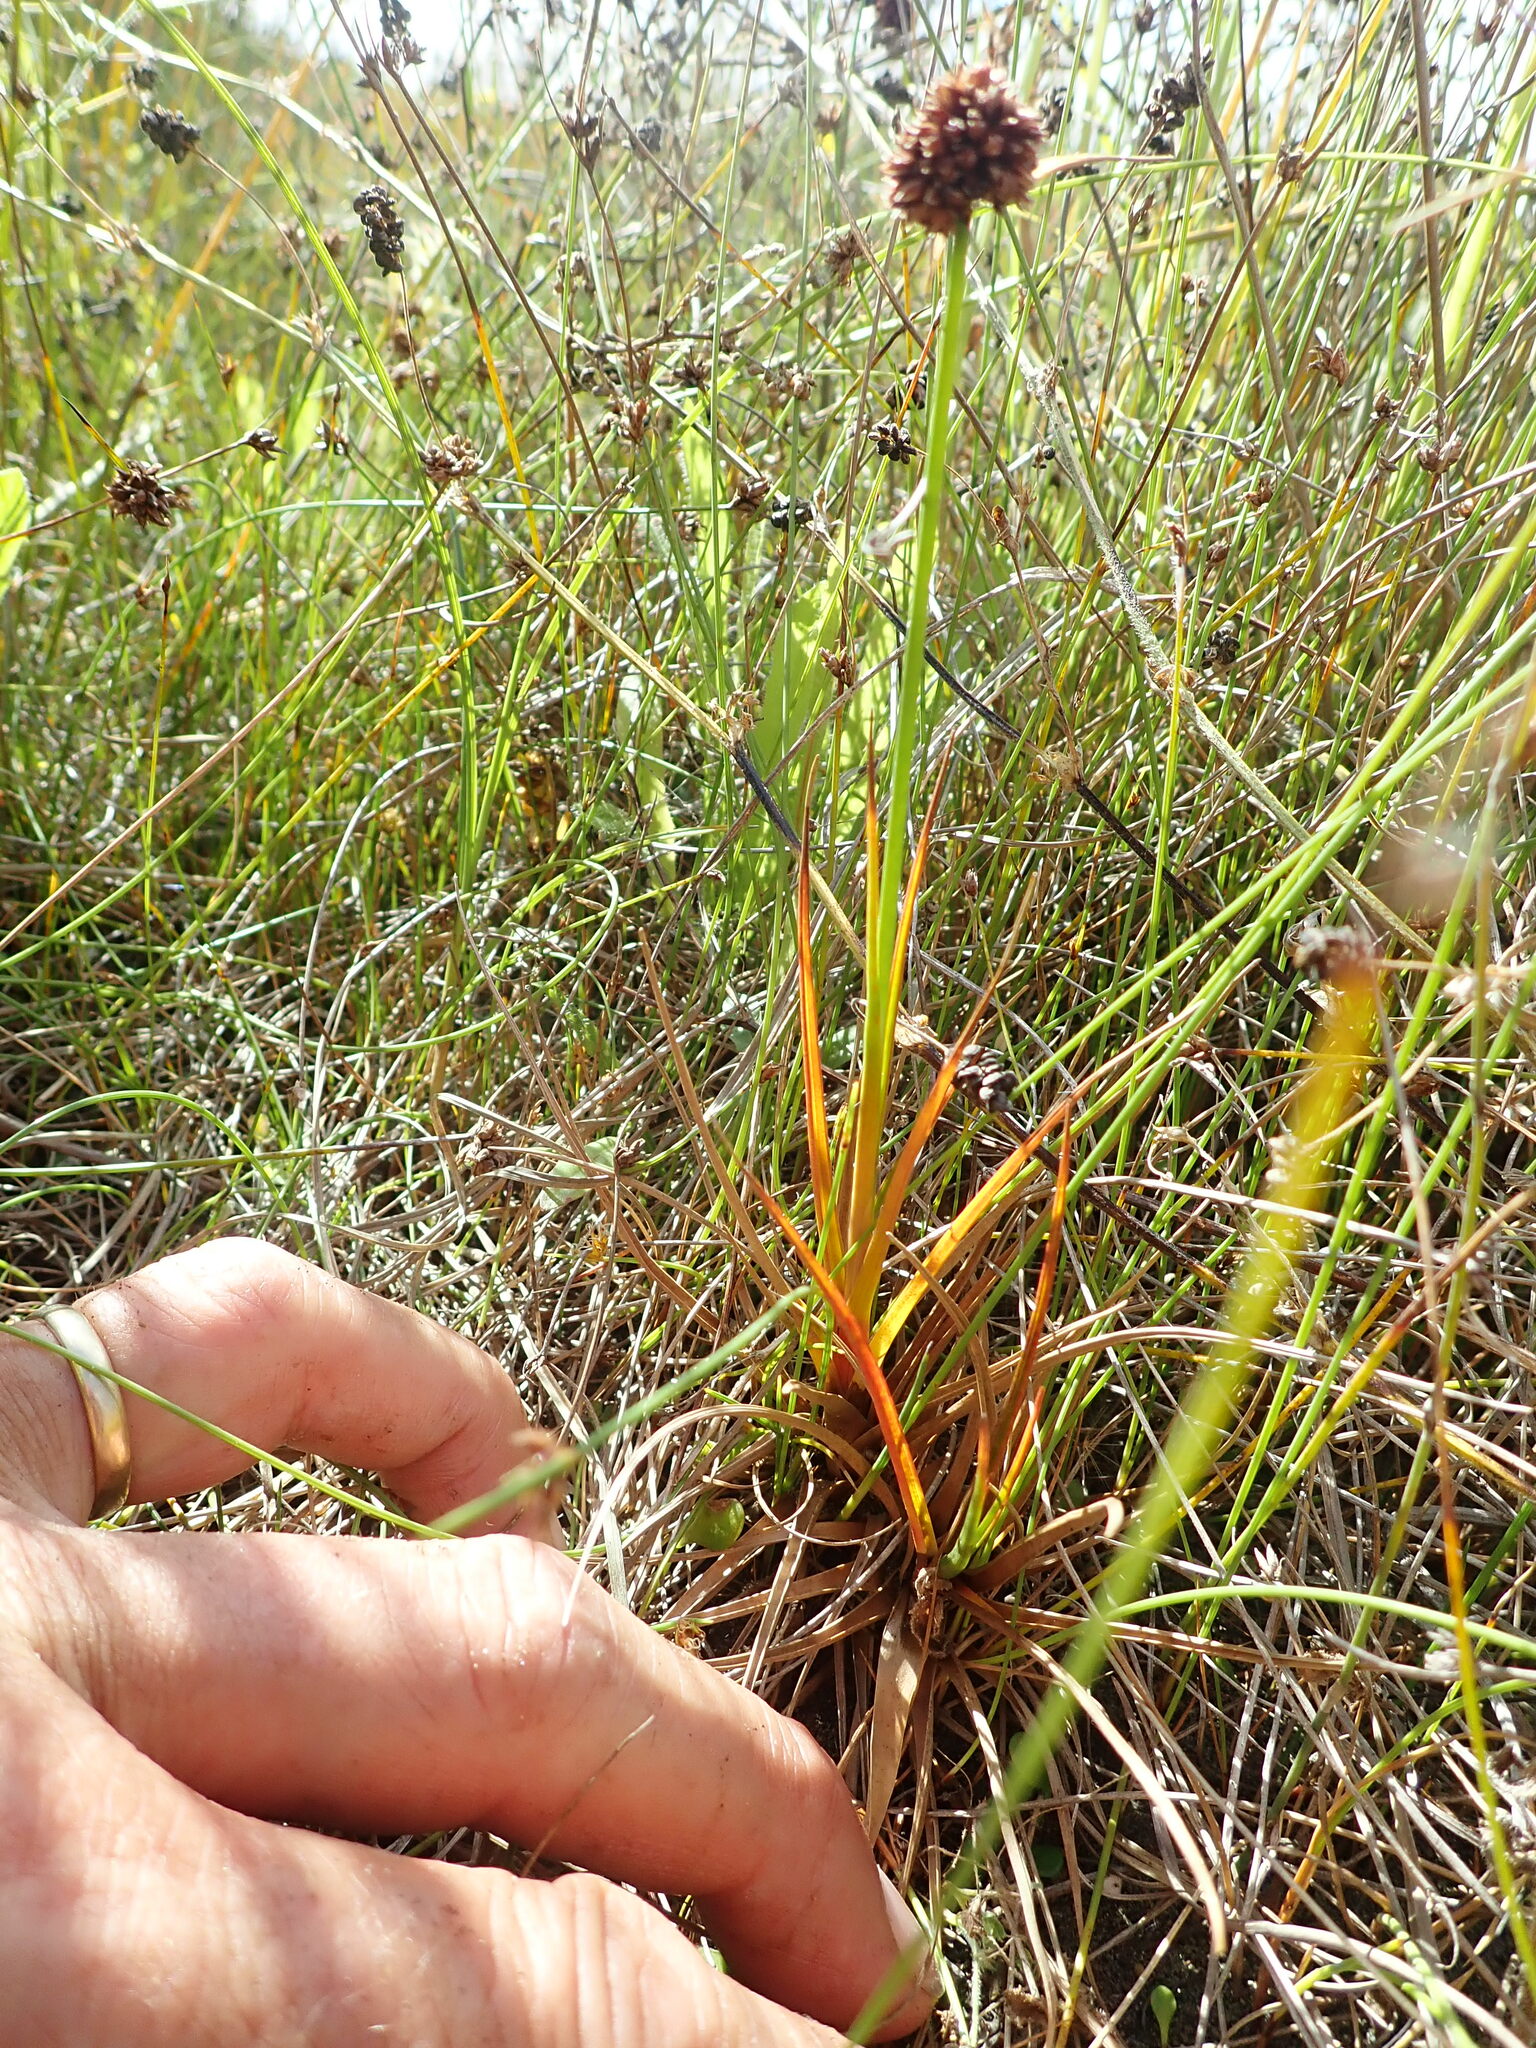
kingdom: Plantae
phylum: Tracheophyta
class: Liliopsida
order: Poales
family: Juncaceae
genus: Juncus
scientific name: Juncus caespiticius
